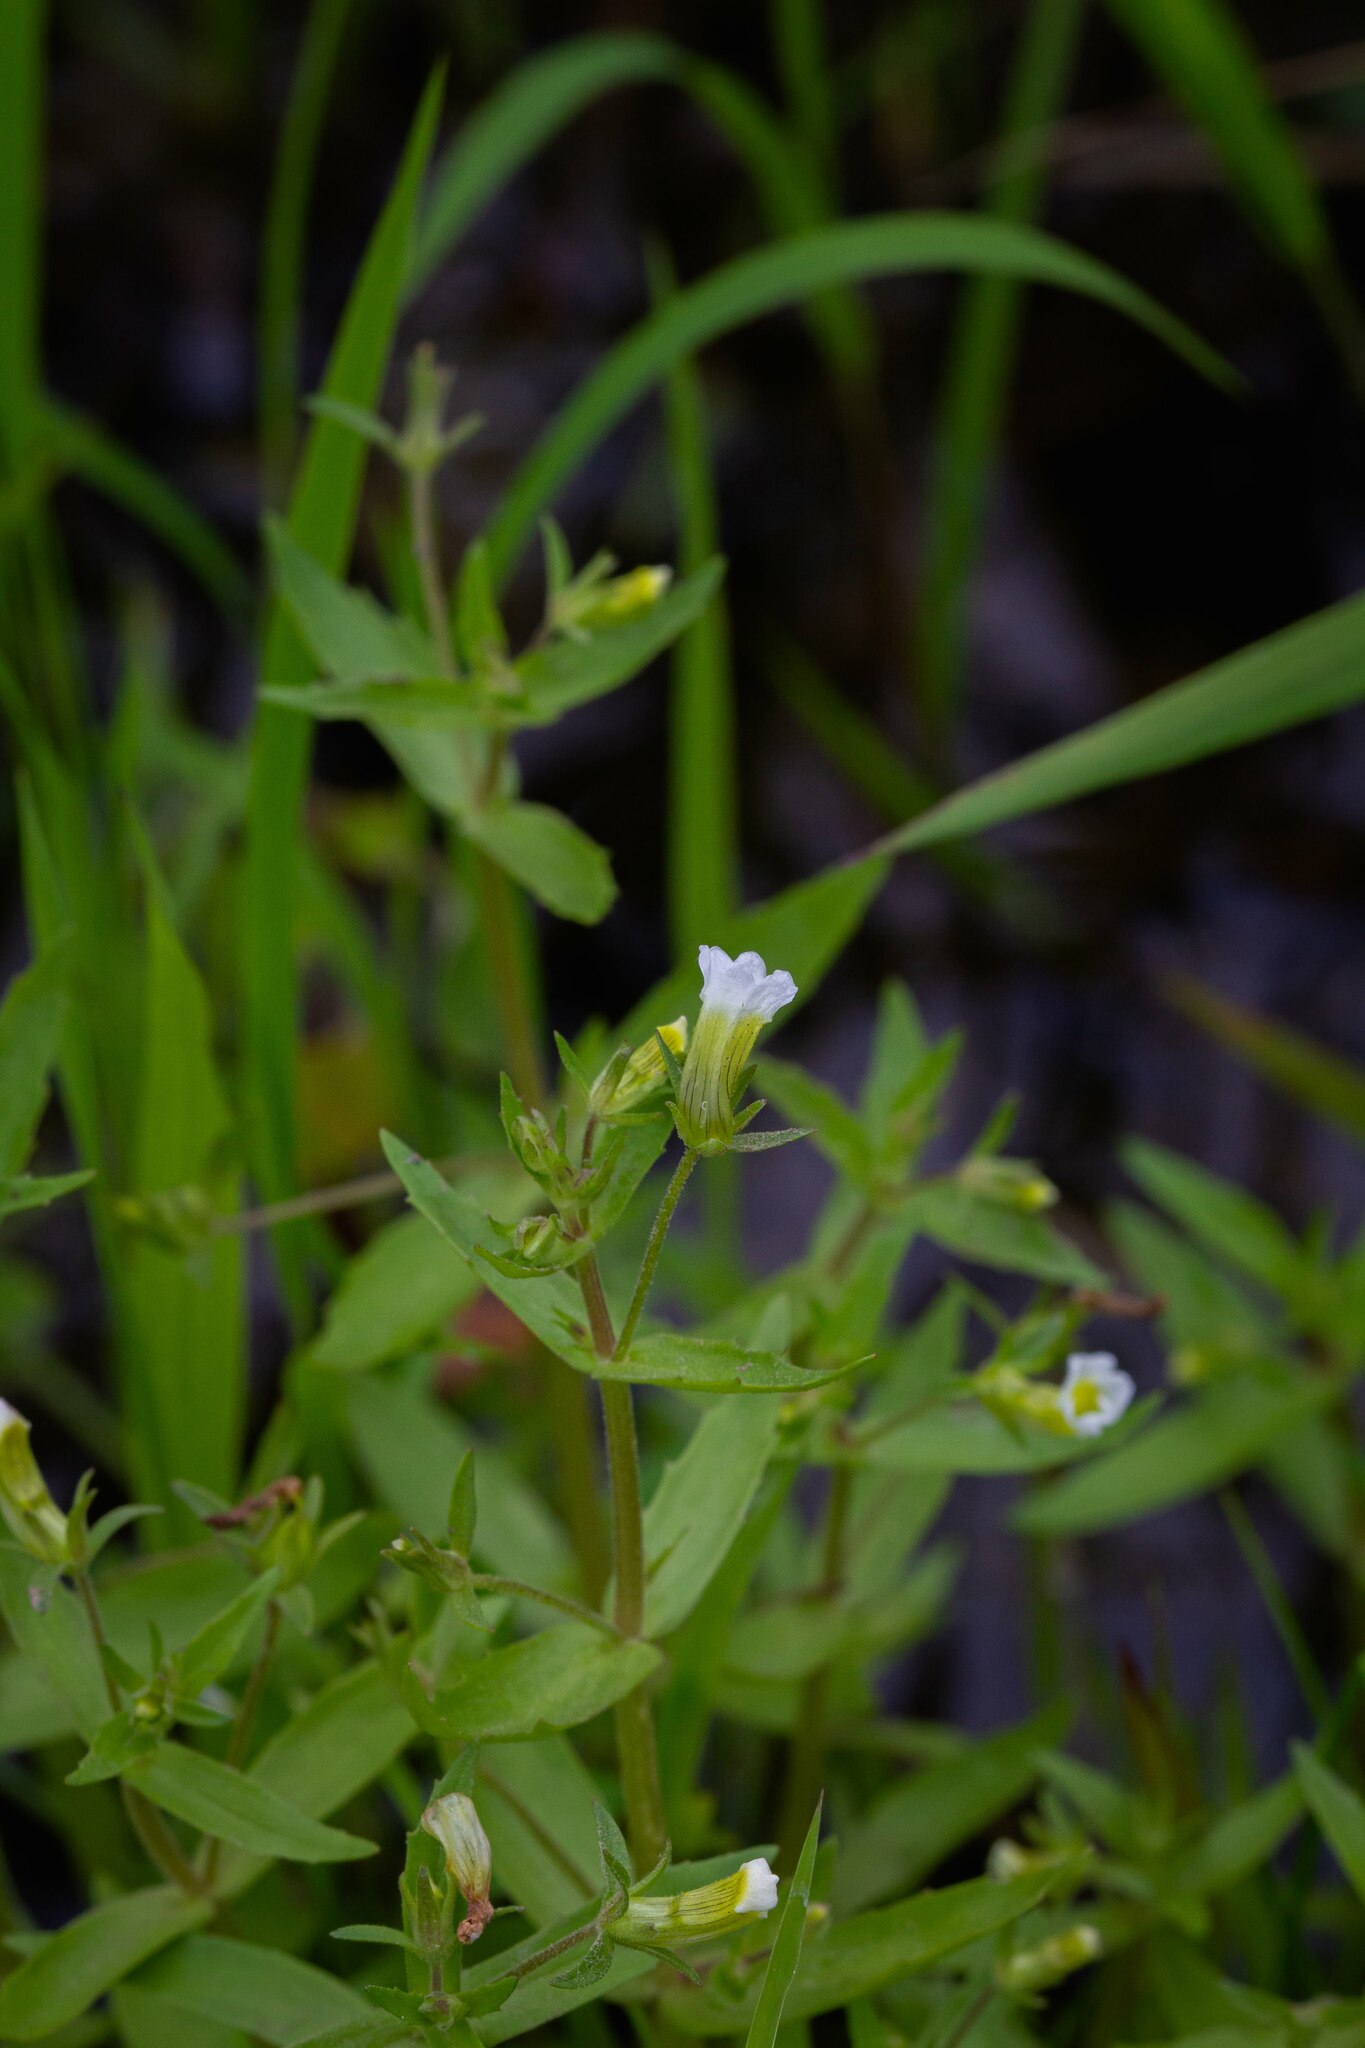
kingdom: Plantae
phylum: Tracheophyta
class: Magnoliopsida
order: Lamiales
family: Plantaginaceae
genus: Gratiola
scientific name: Gratiola neglecta
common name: American hedge-hyssop
